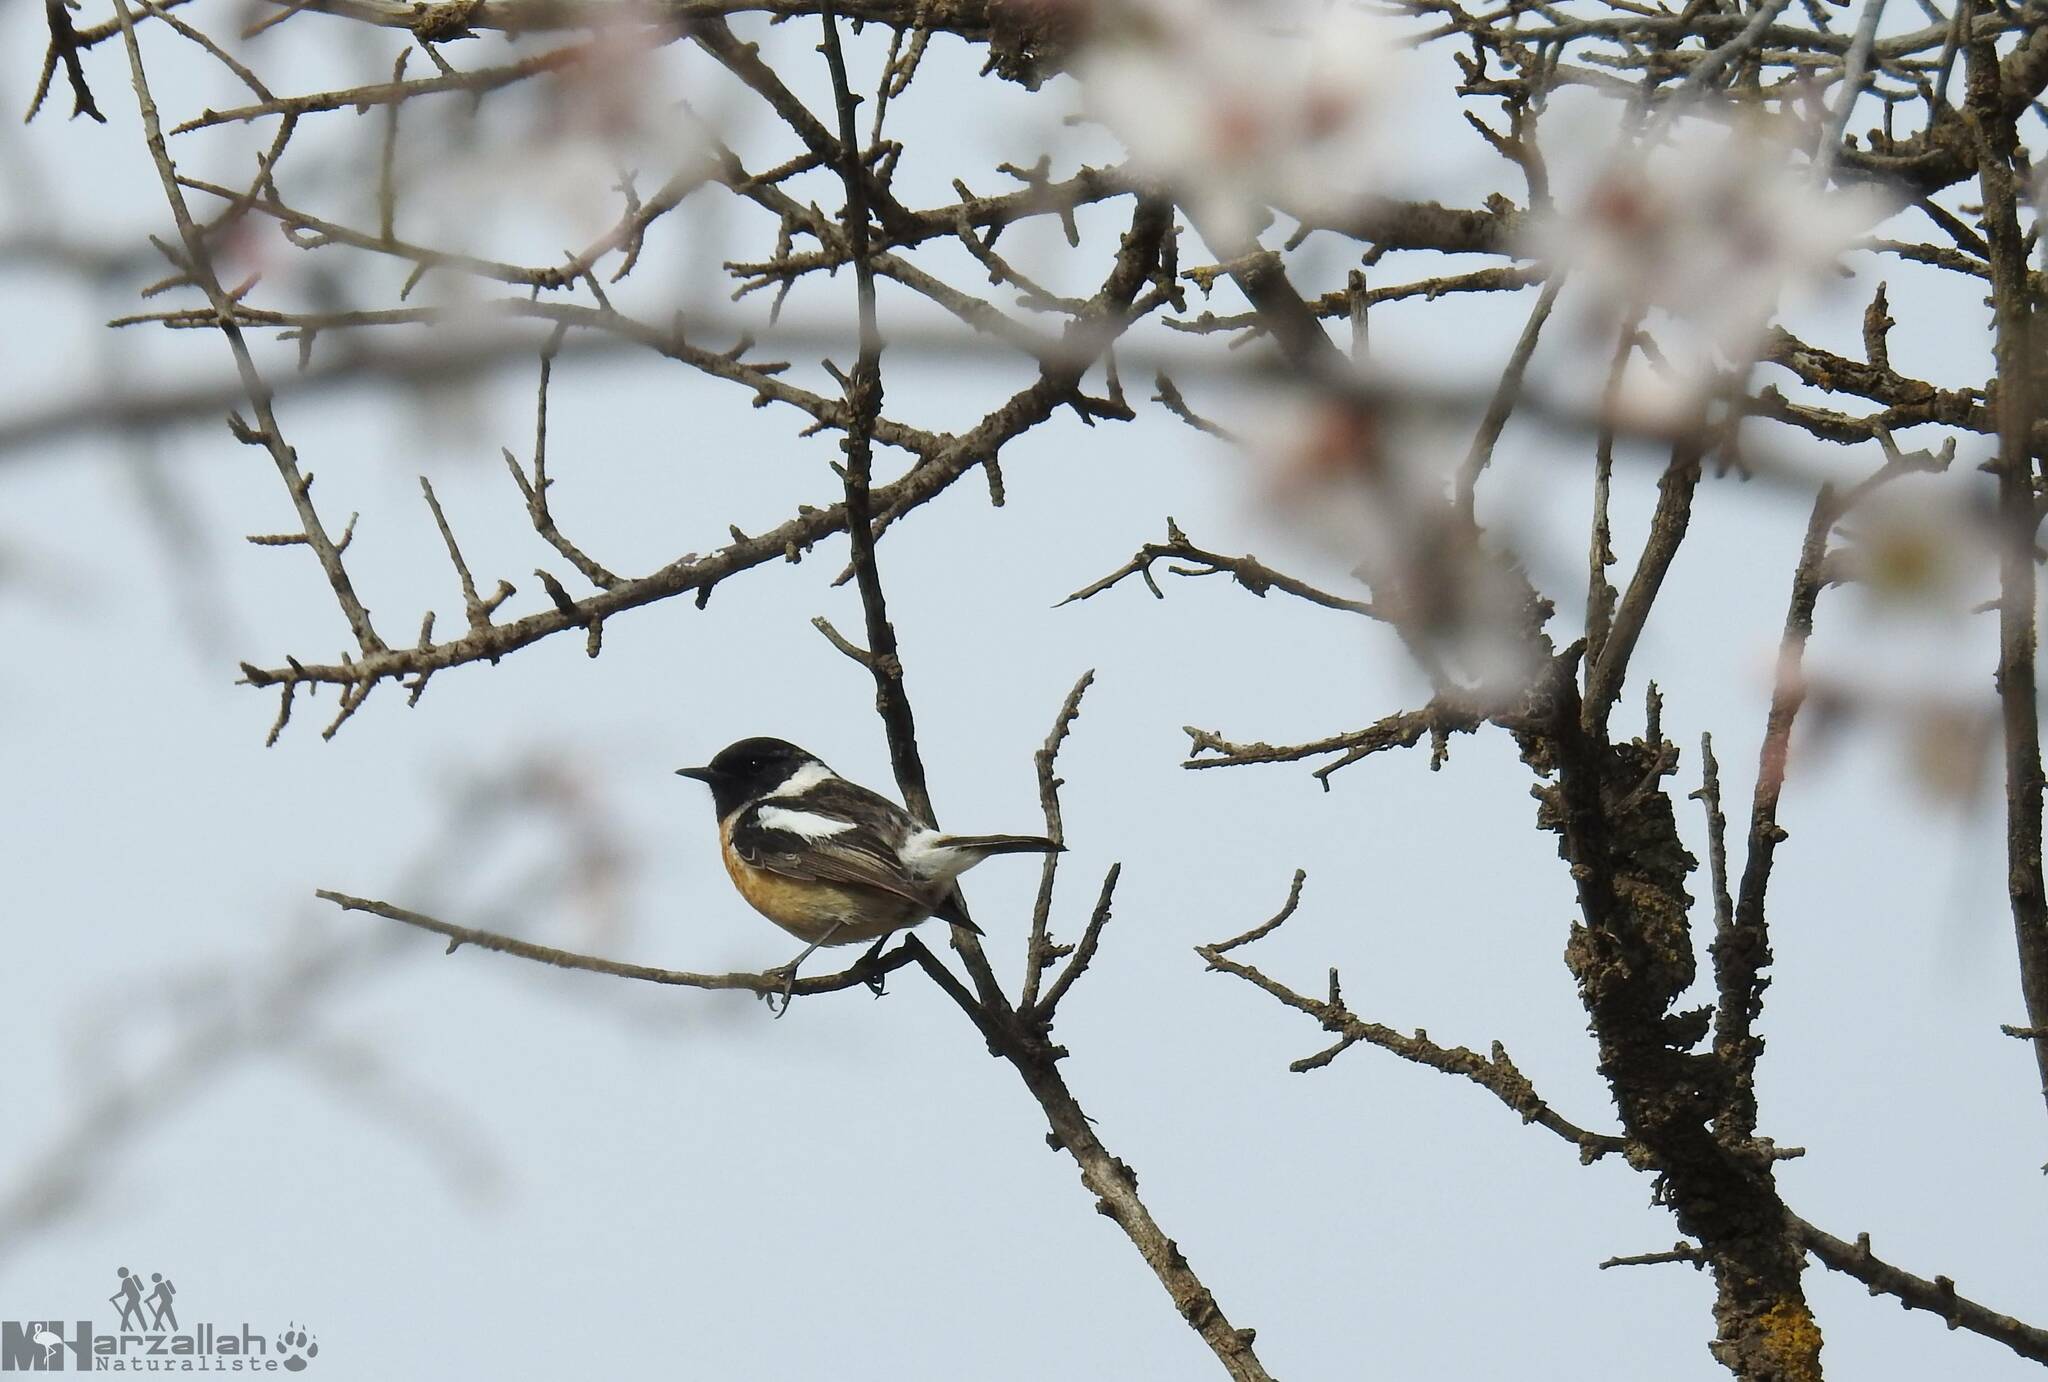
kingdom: Animalia
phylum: Chordata
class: Aves
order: Passeriformes
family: Muscicapidae
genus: Saxicola
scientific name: Saxicola rubicola
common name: European stonechat
